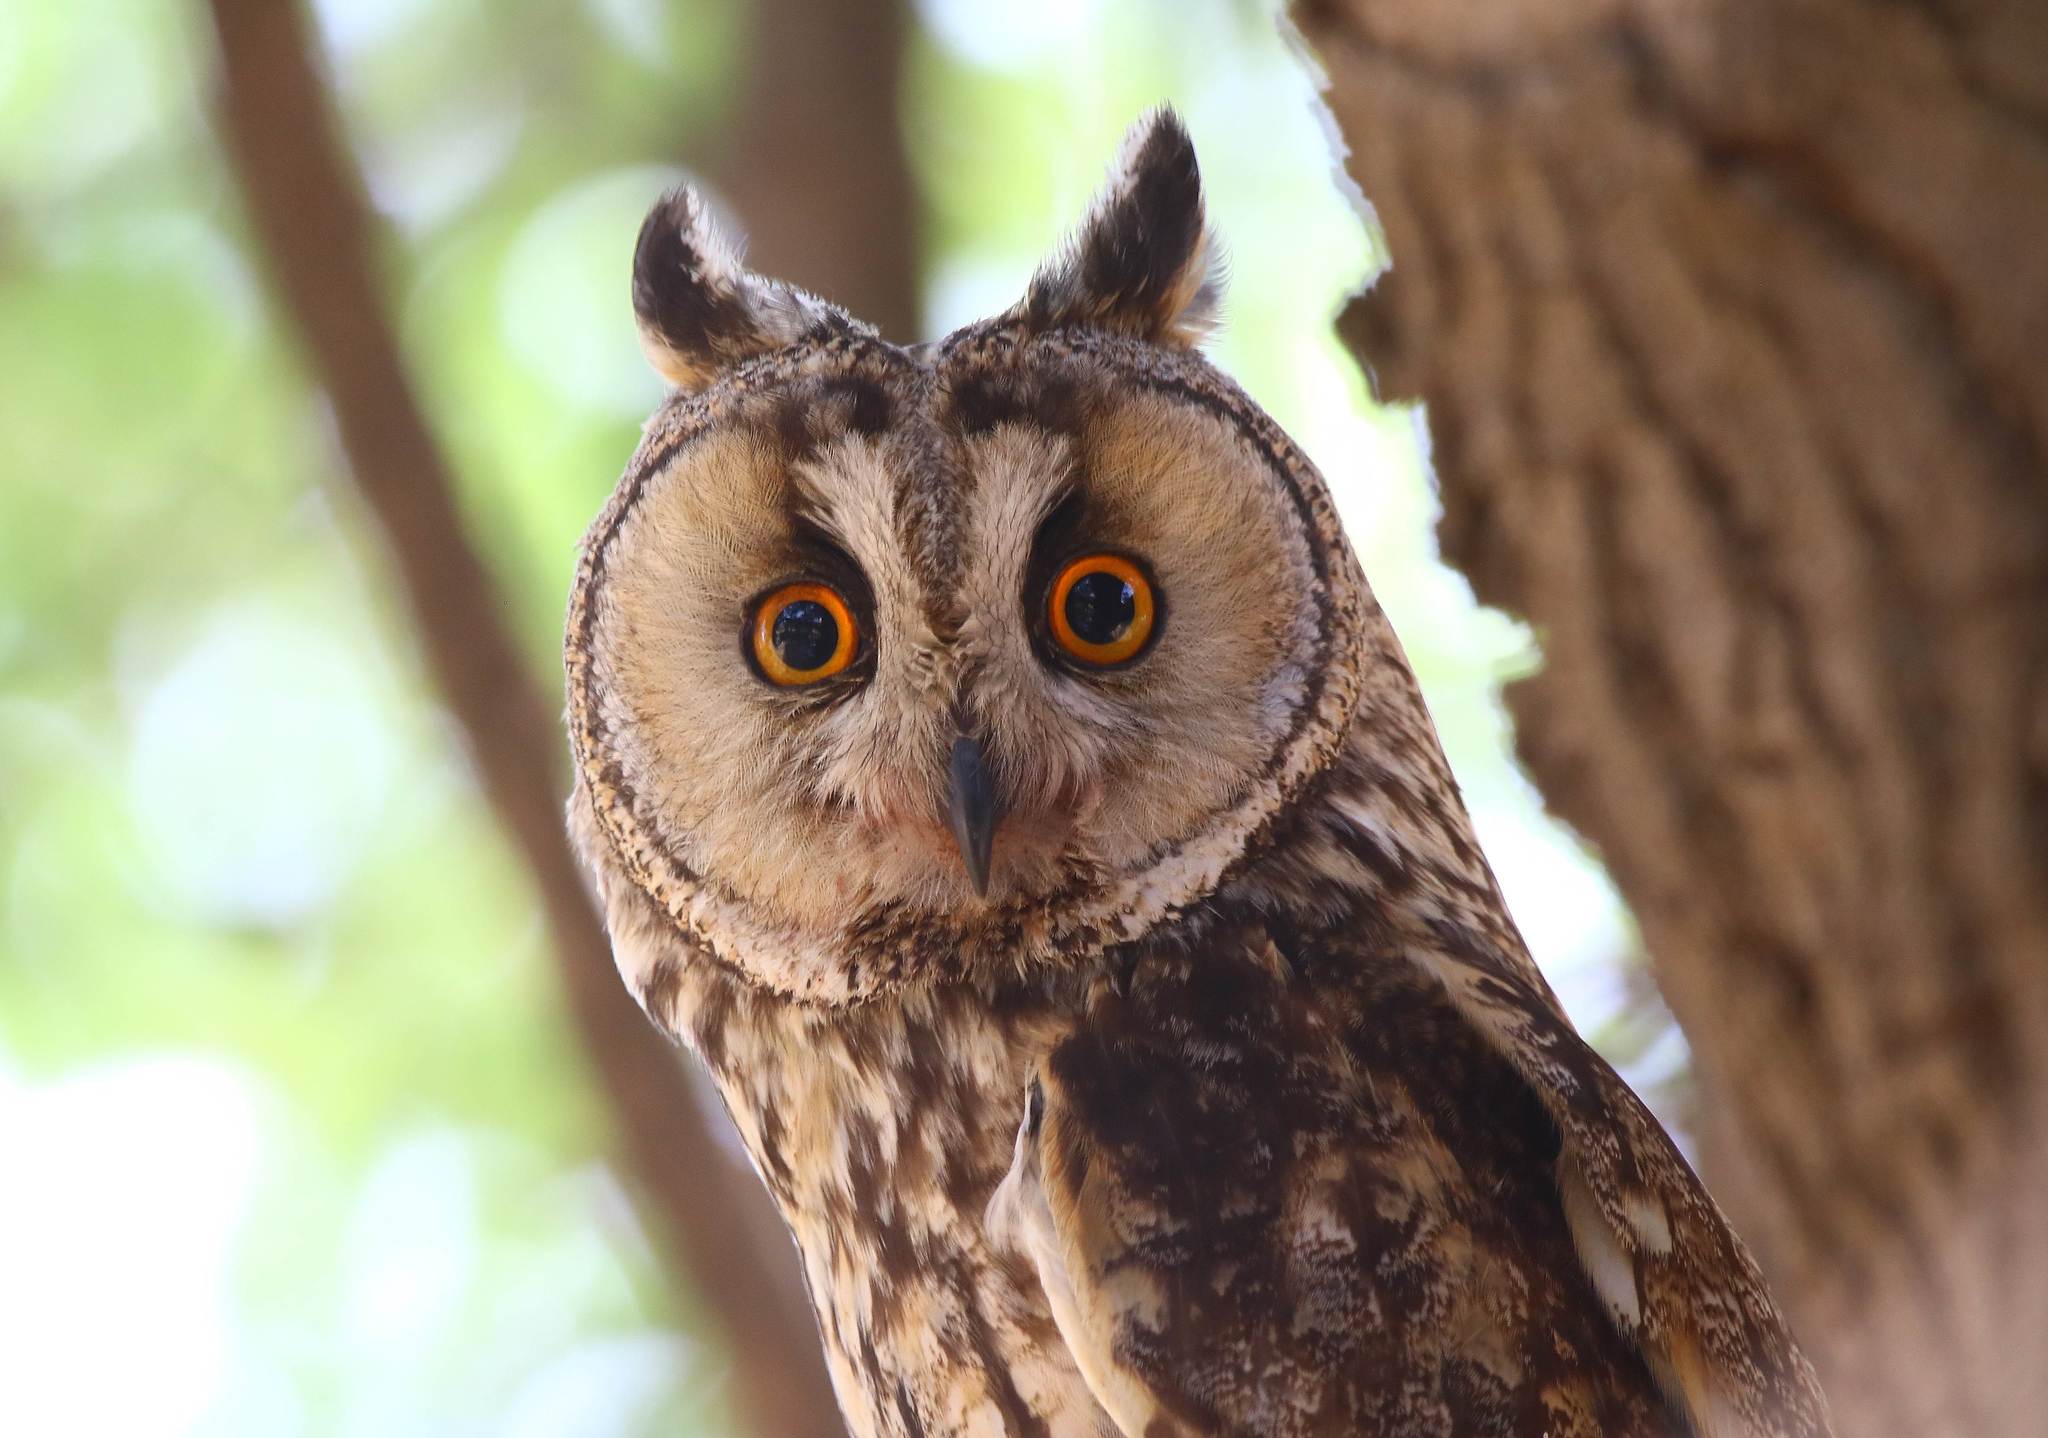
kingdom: Animalia
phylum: Chordata
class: Aves
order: Strigiformes
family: Strigidae
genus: Asio
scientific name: Asio otus
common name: Long-eared owl
